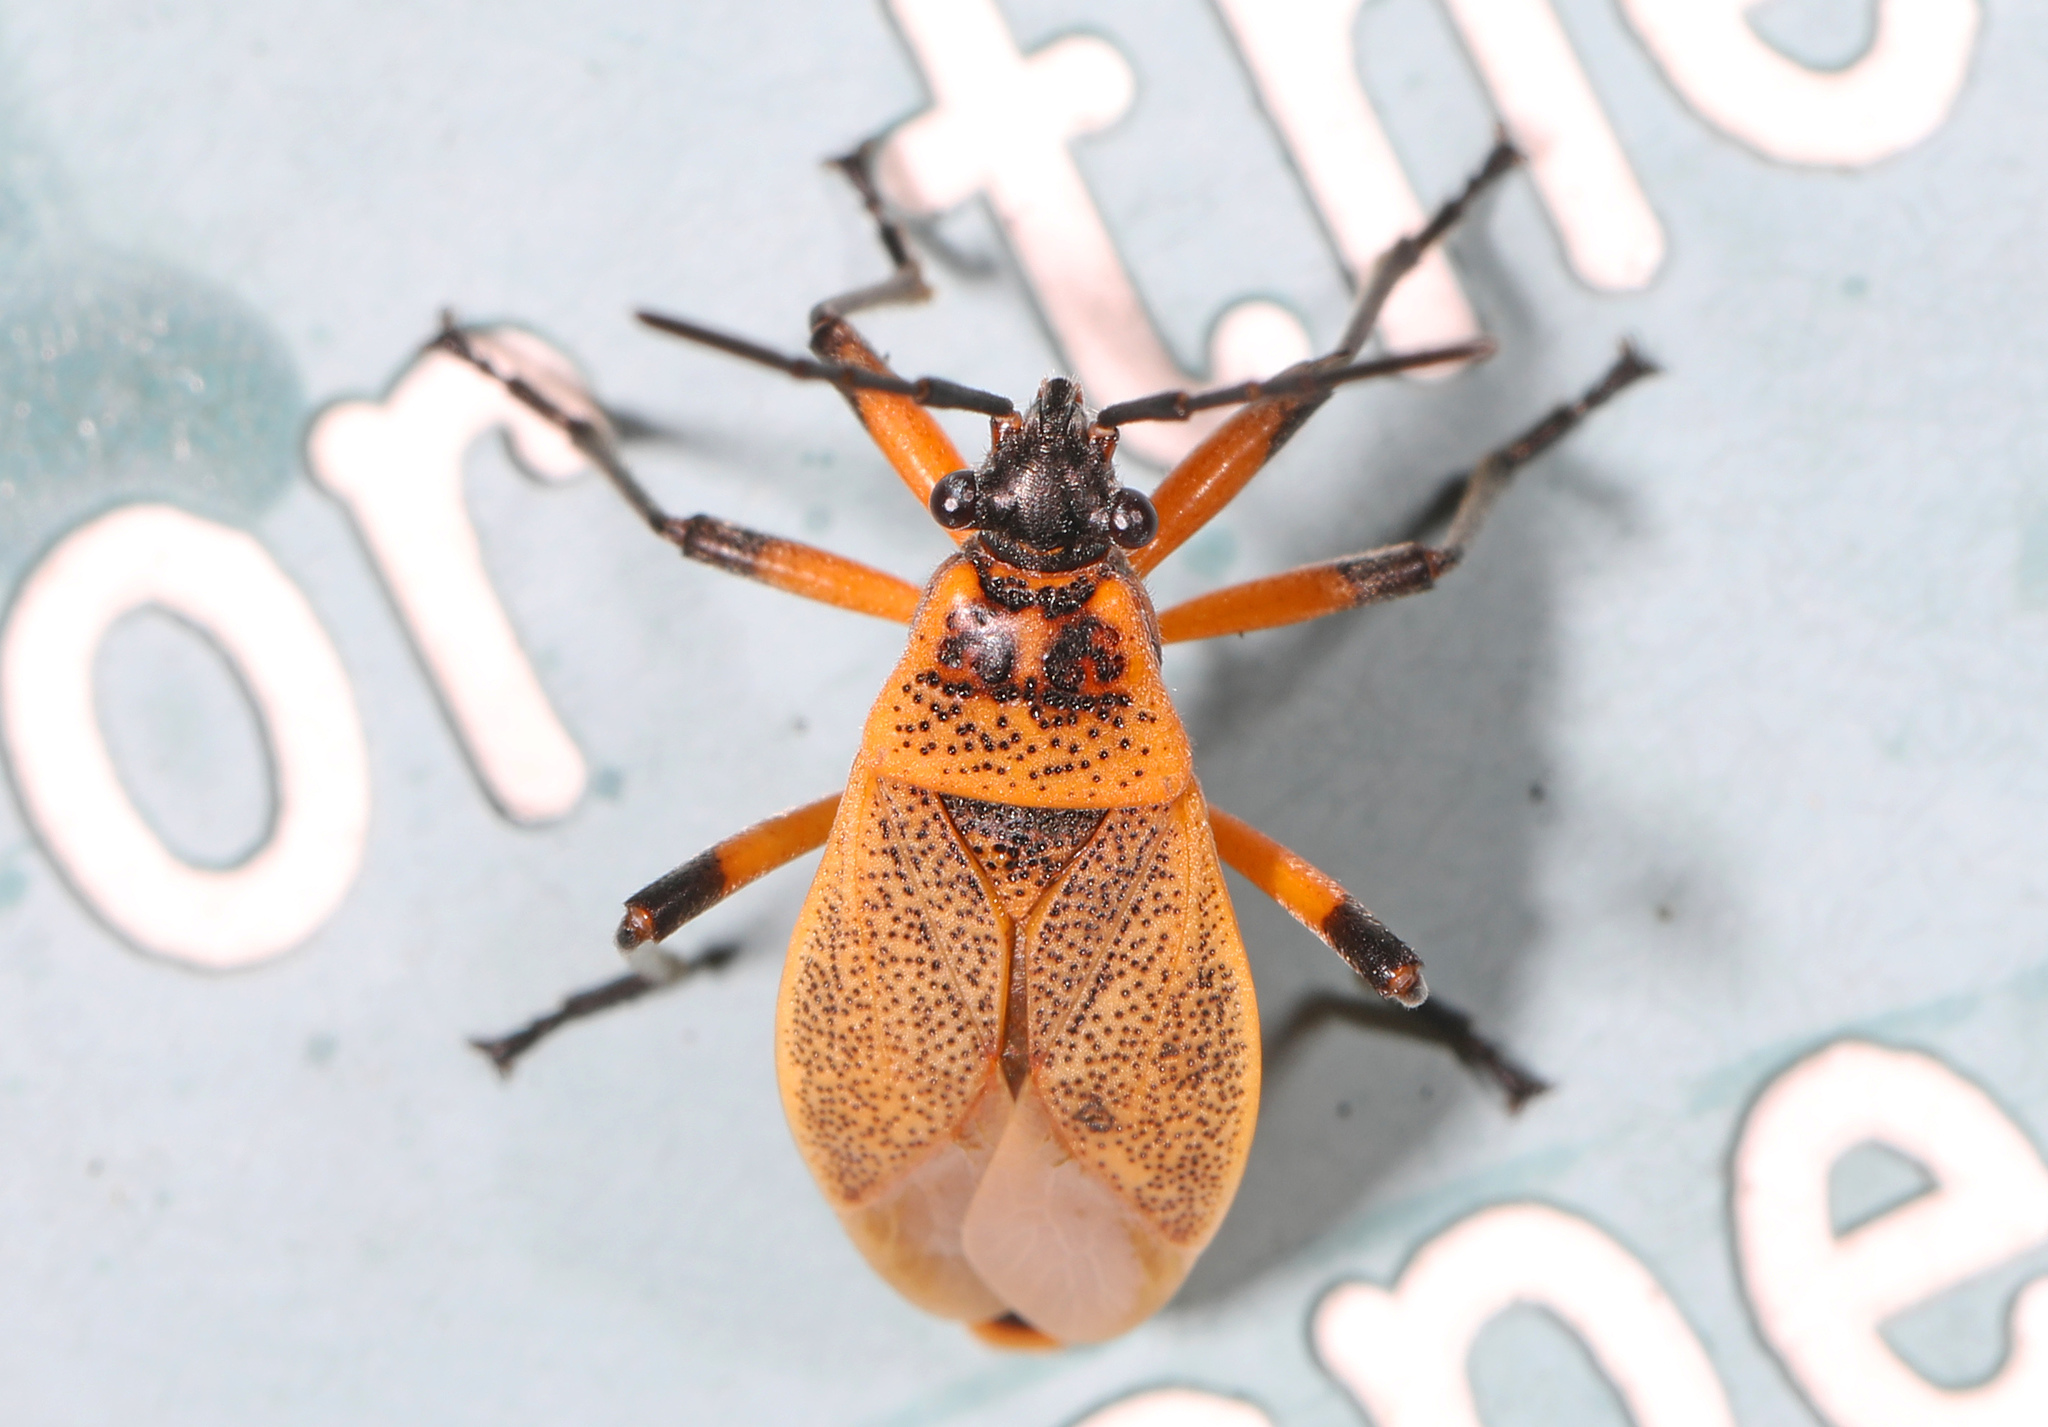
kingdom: Animalia
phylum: Arthropoda
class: Insecta
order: Hemiptera
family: Largidae
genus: Largus
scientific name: Largus davisi
